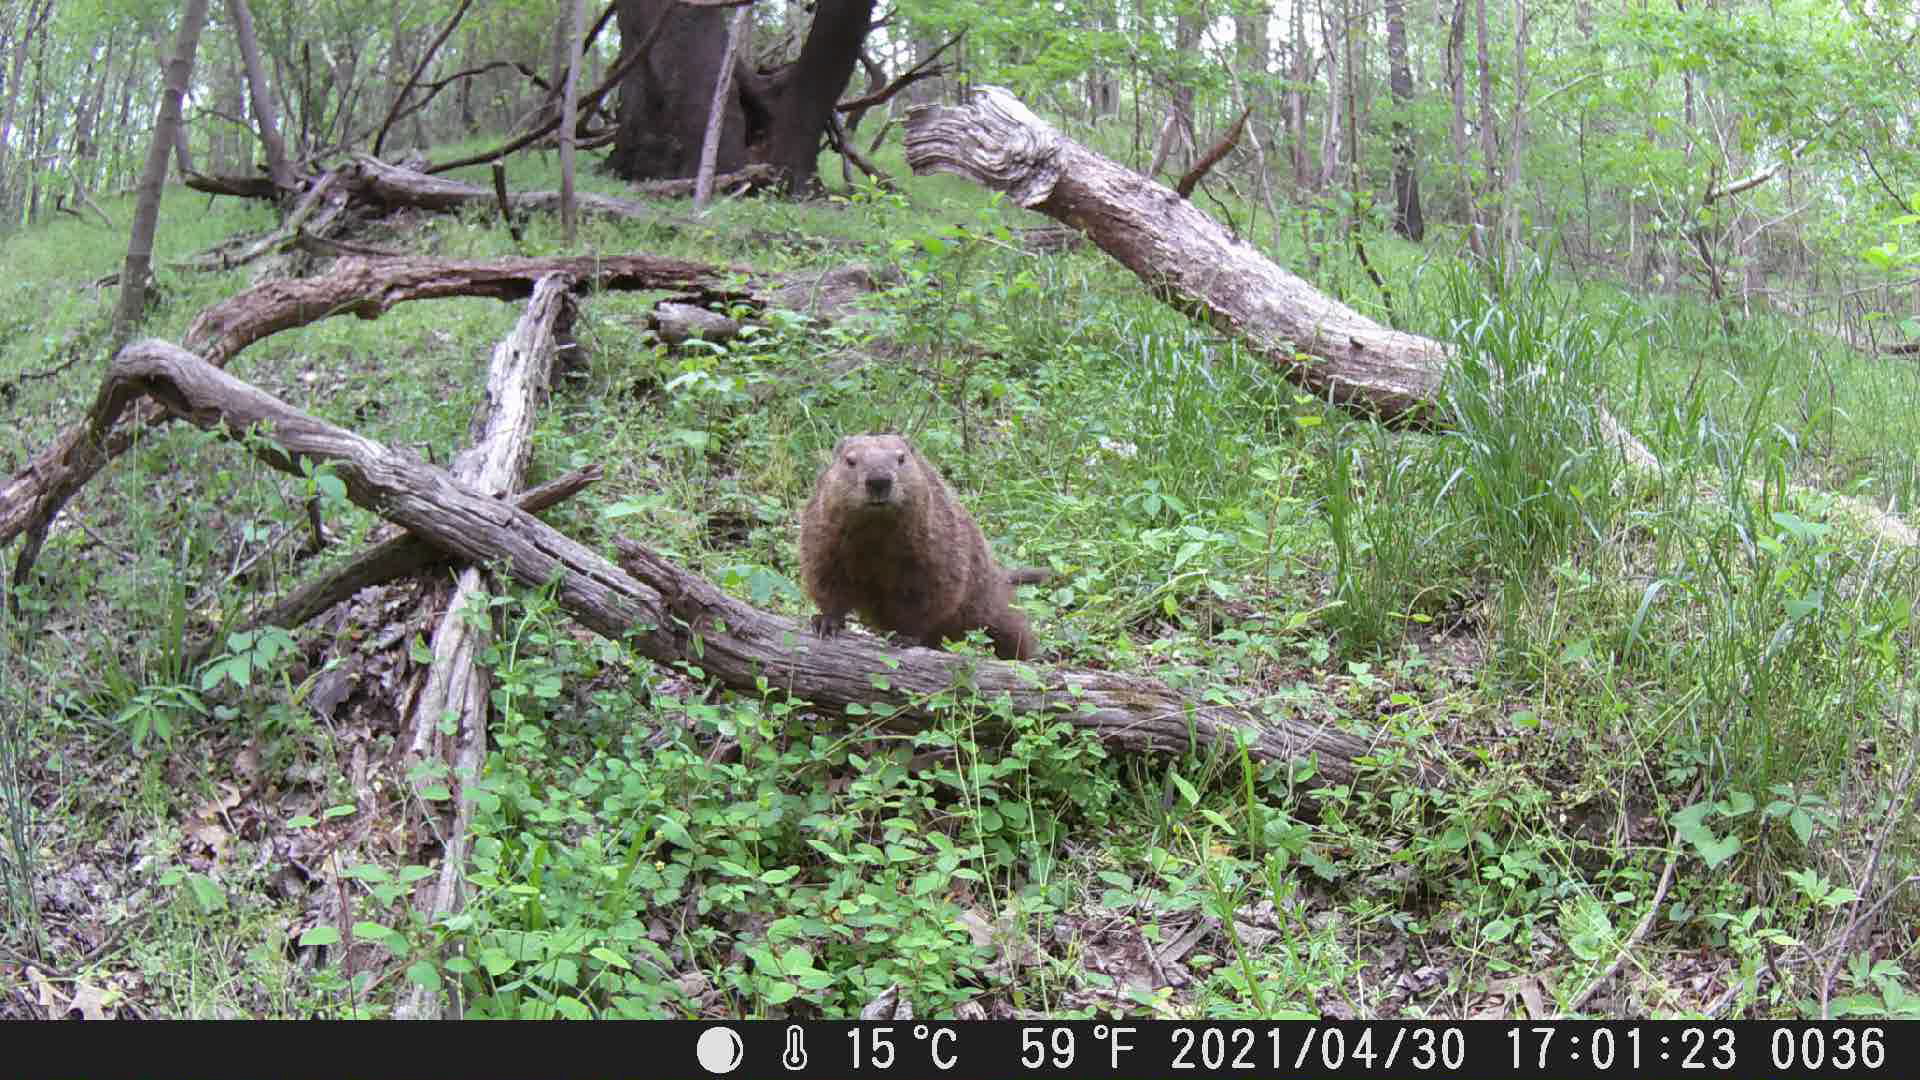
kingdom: Animalia
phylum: Chordata
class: Mammalia
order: Rodentia
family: Sciuridae
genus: Marmota
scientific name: Marmota monax
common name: Groundhog
